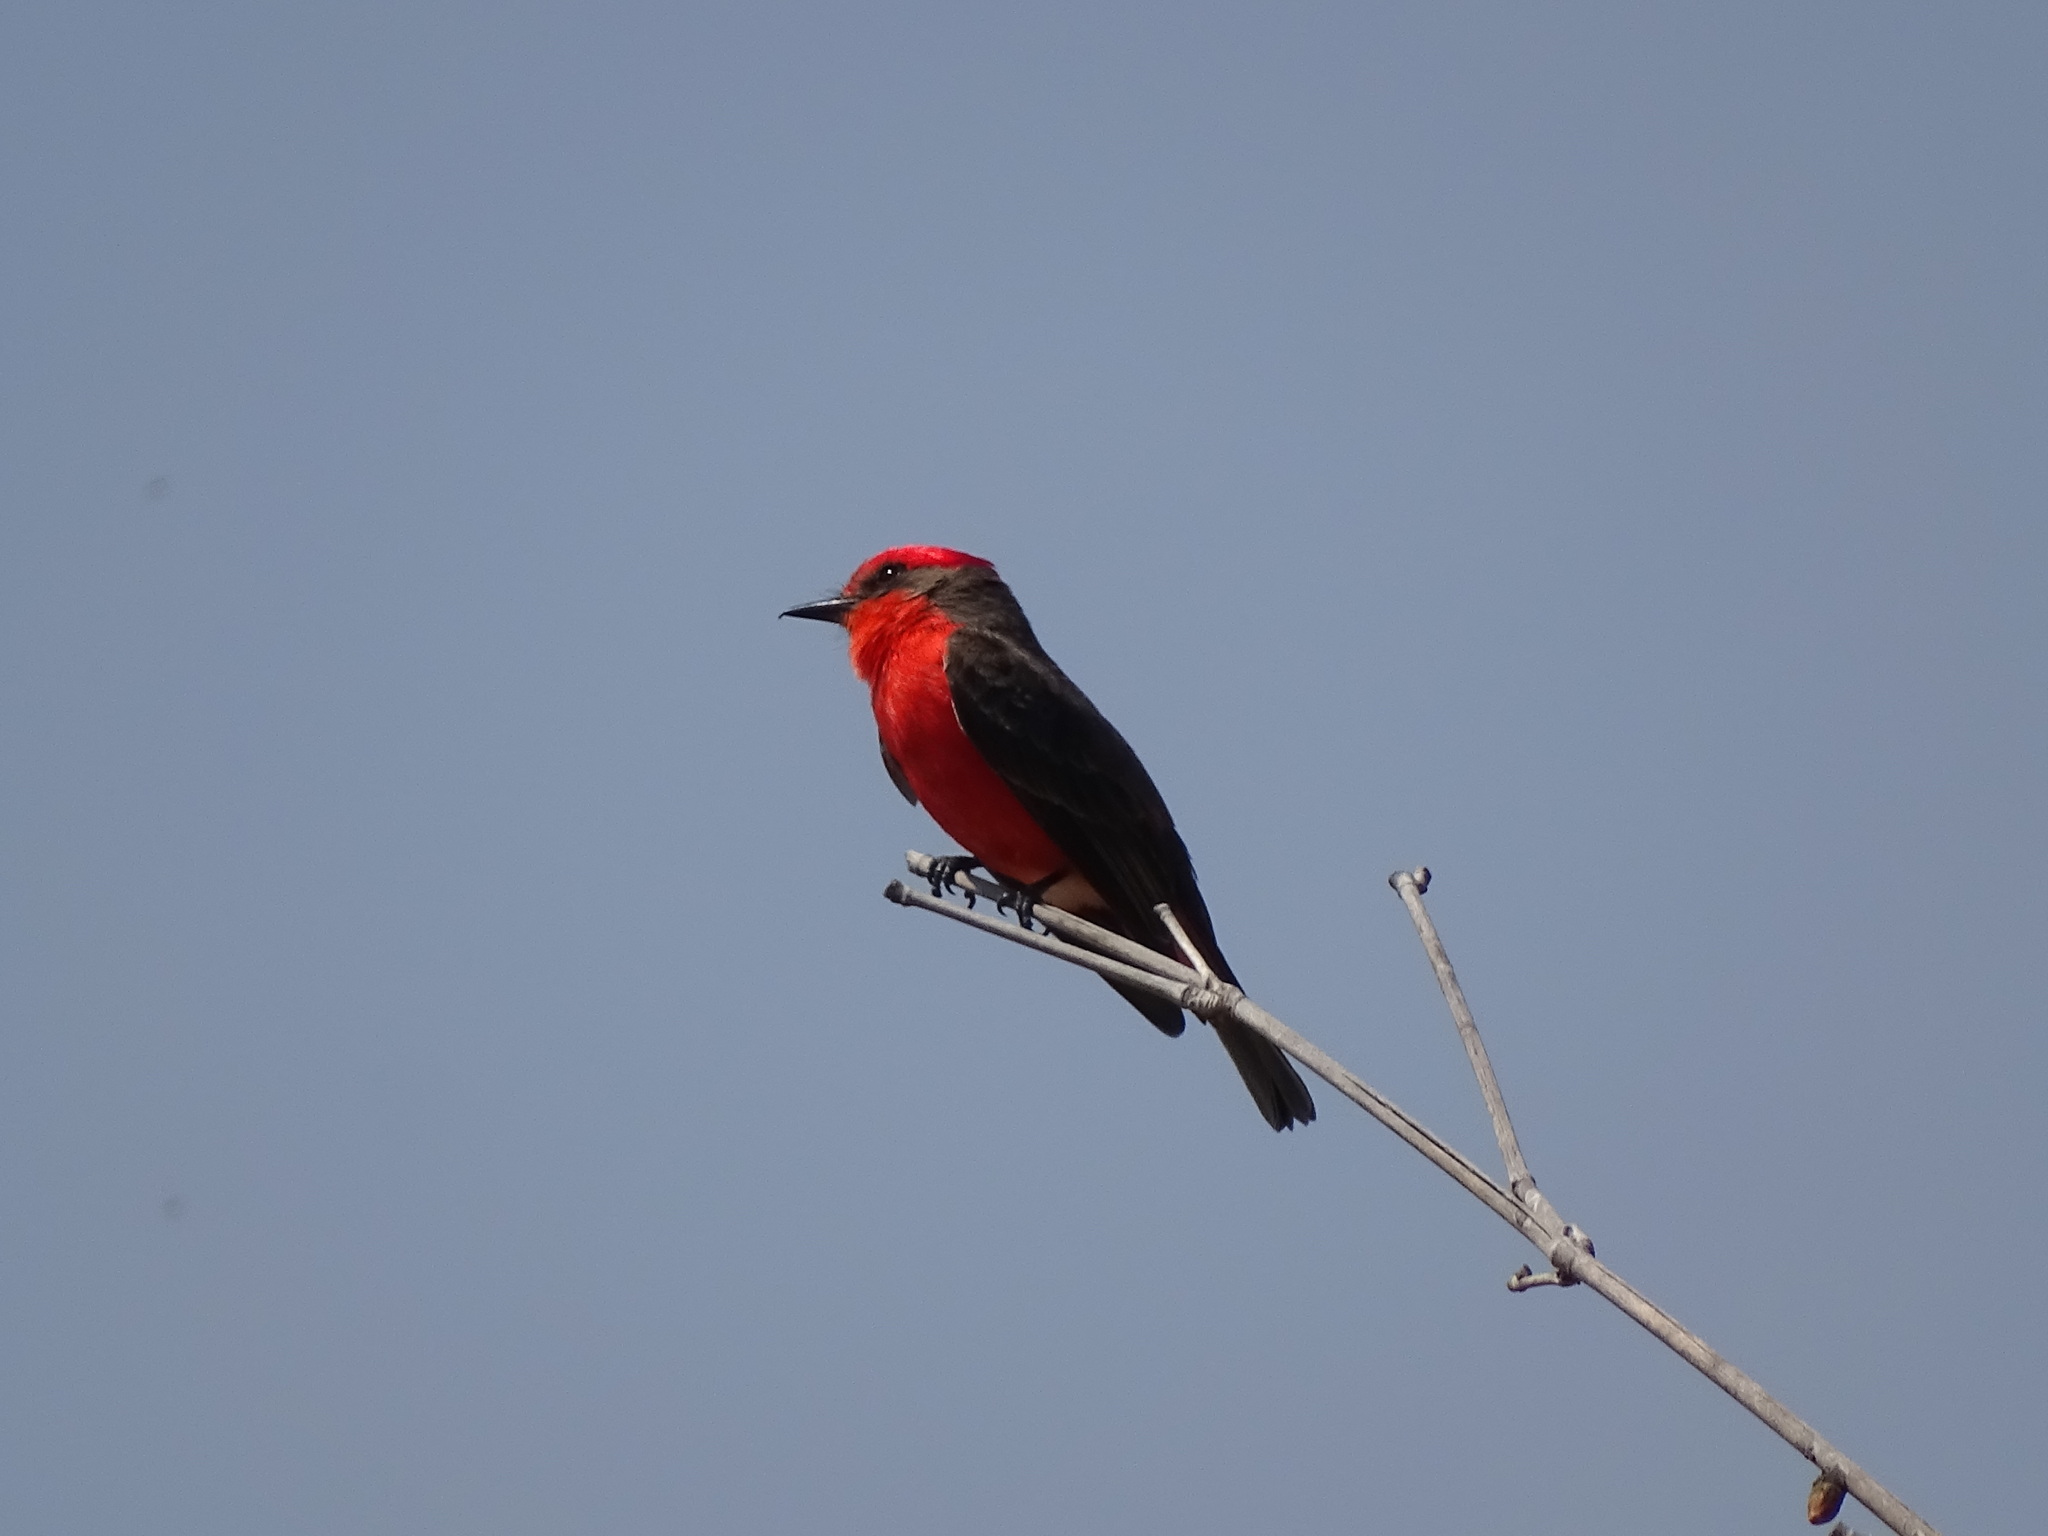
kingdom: Animalia
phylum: Chordata
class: Aves
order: Passeriformes
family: Tyrannidae
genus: Pyrocephalus
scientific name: Pyrocephalus rubinus
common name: Vermilion flycatcher
